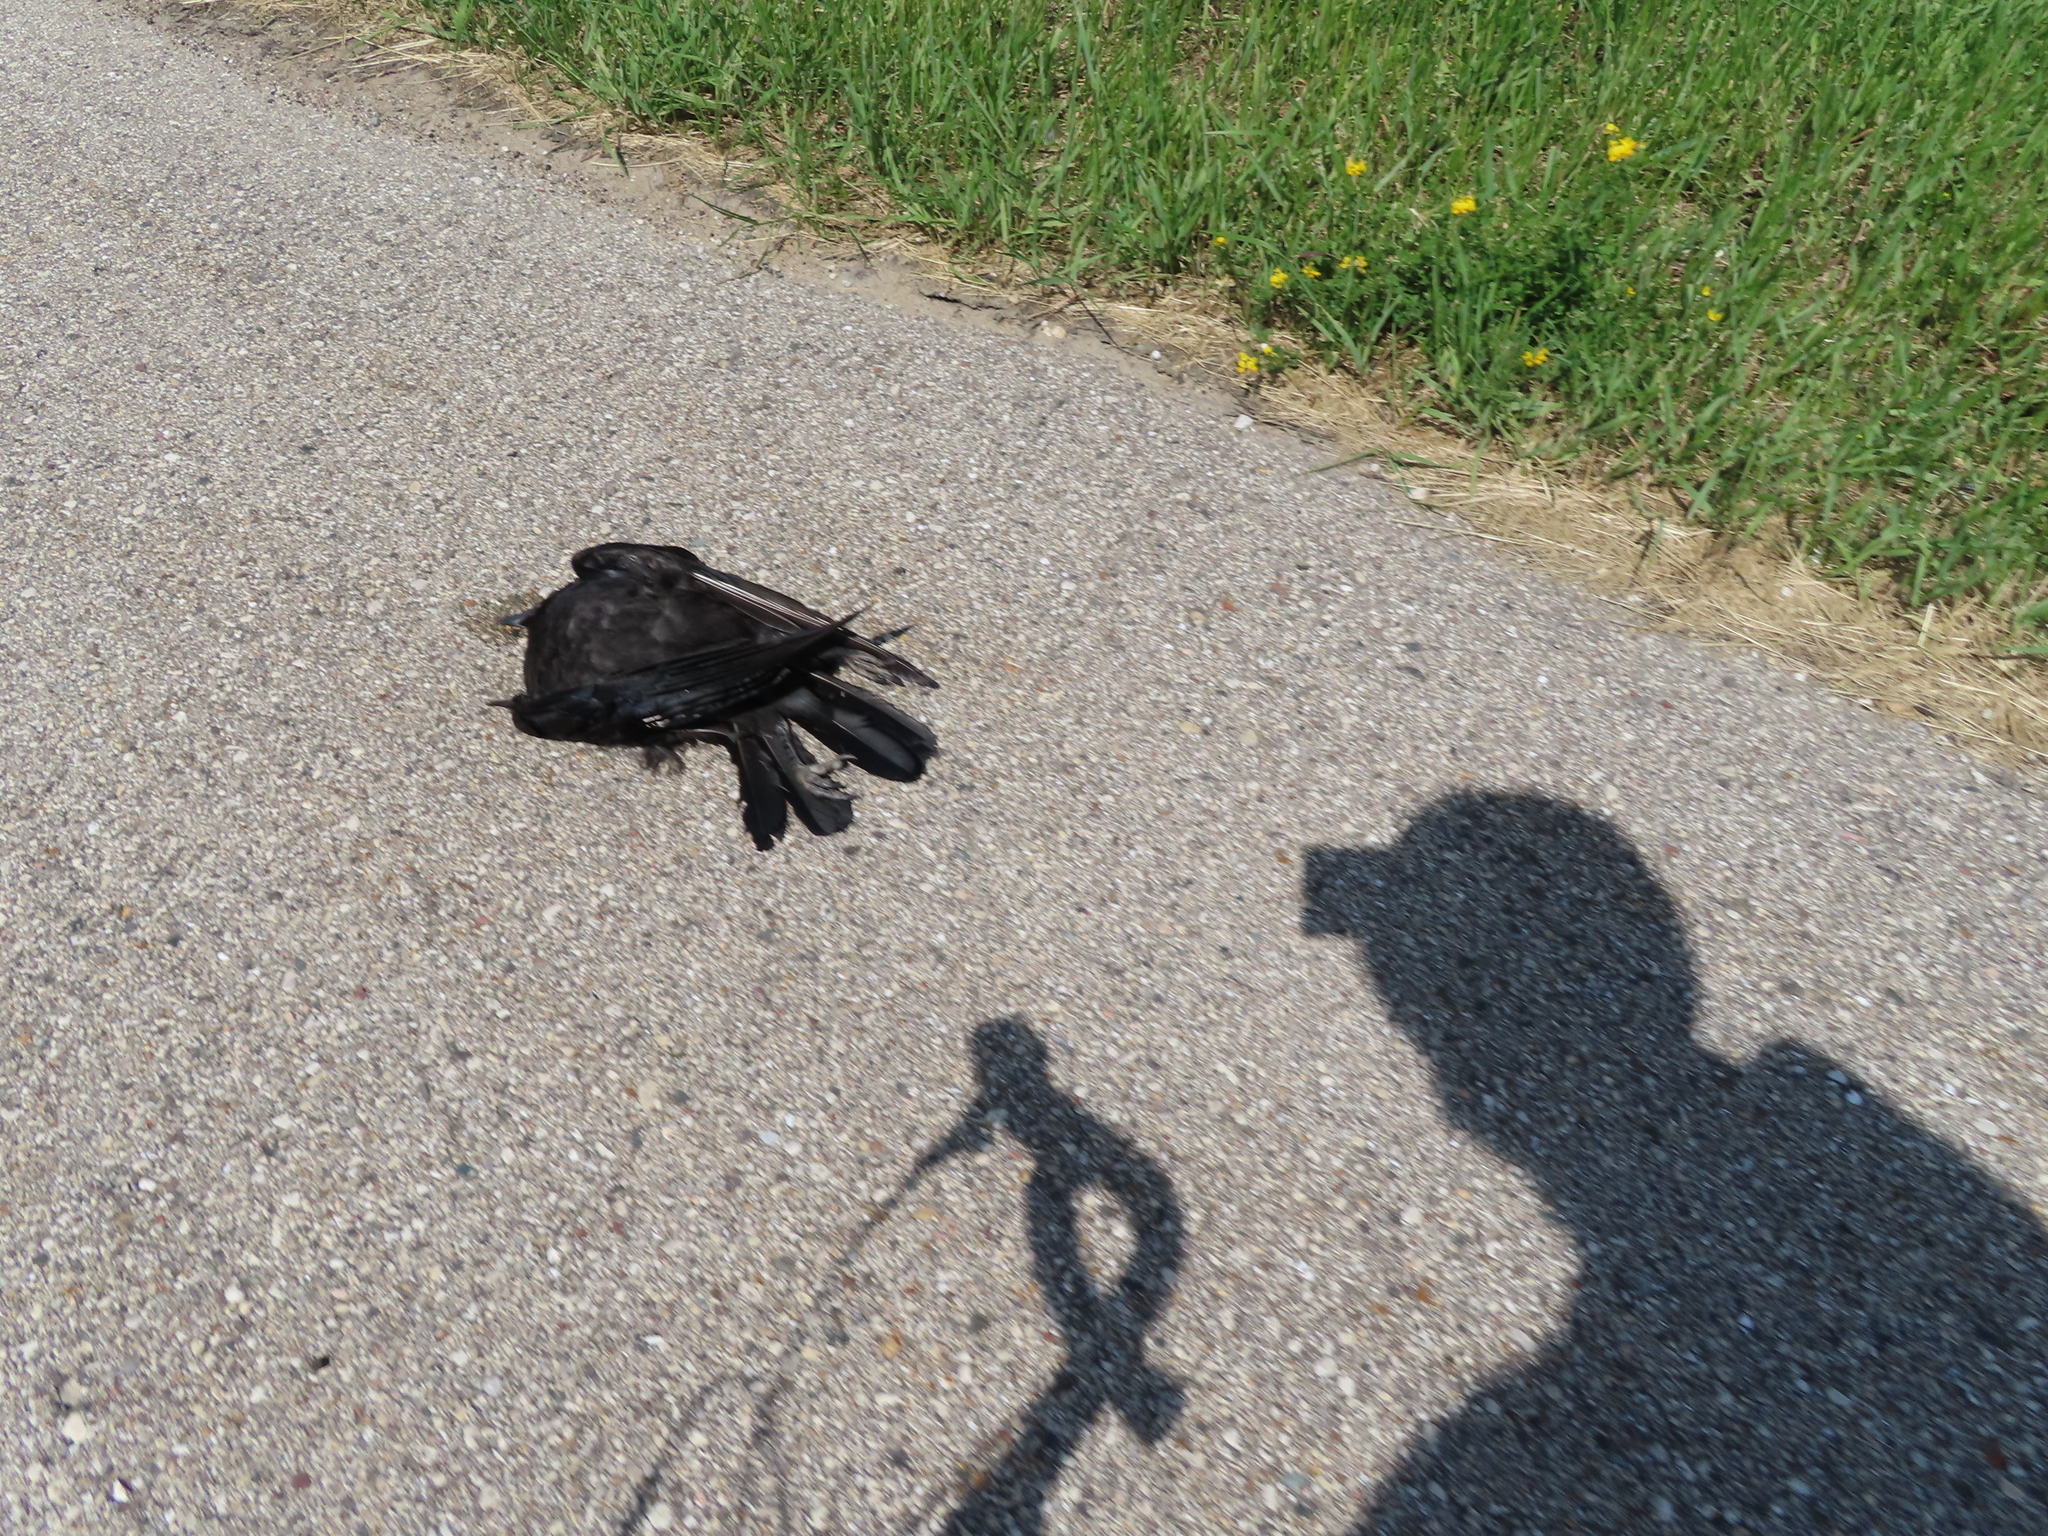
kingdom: Animalia
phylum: Chordata
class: Aves
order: Passeriformes
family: Corvidae
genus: Corvus
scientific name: Corvus brachyrhynchos
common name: American crow
